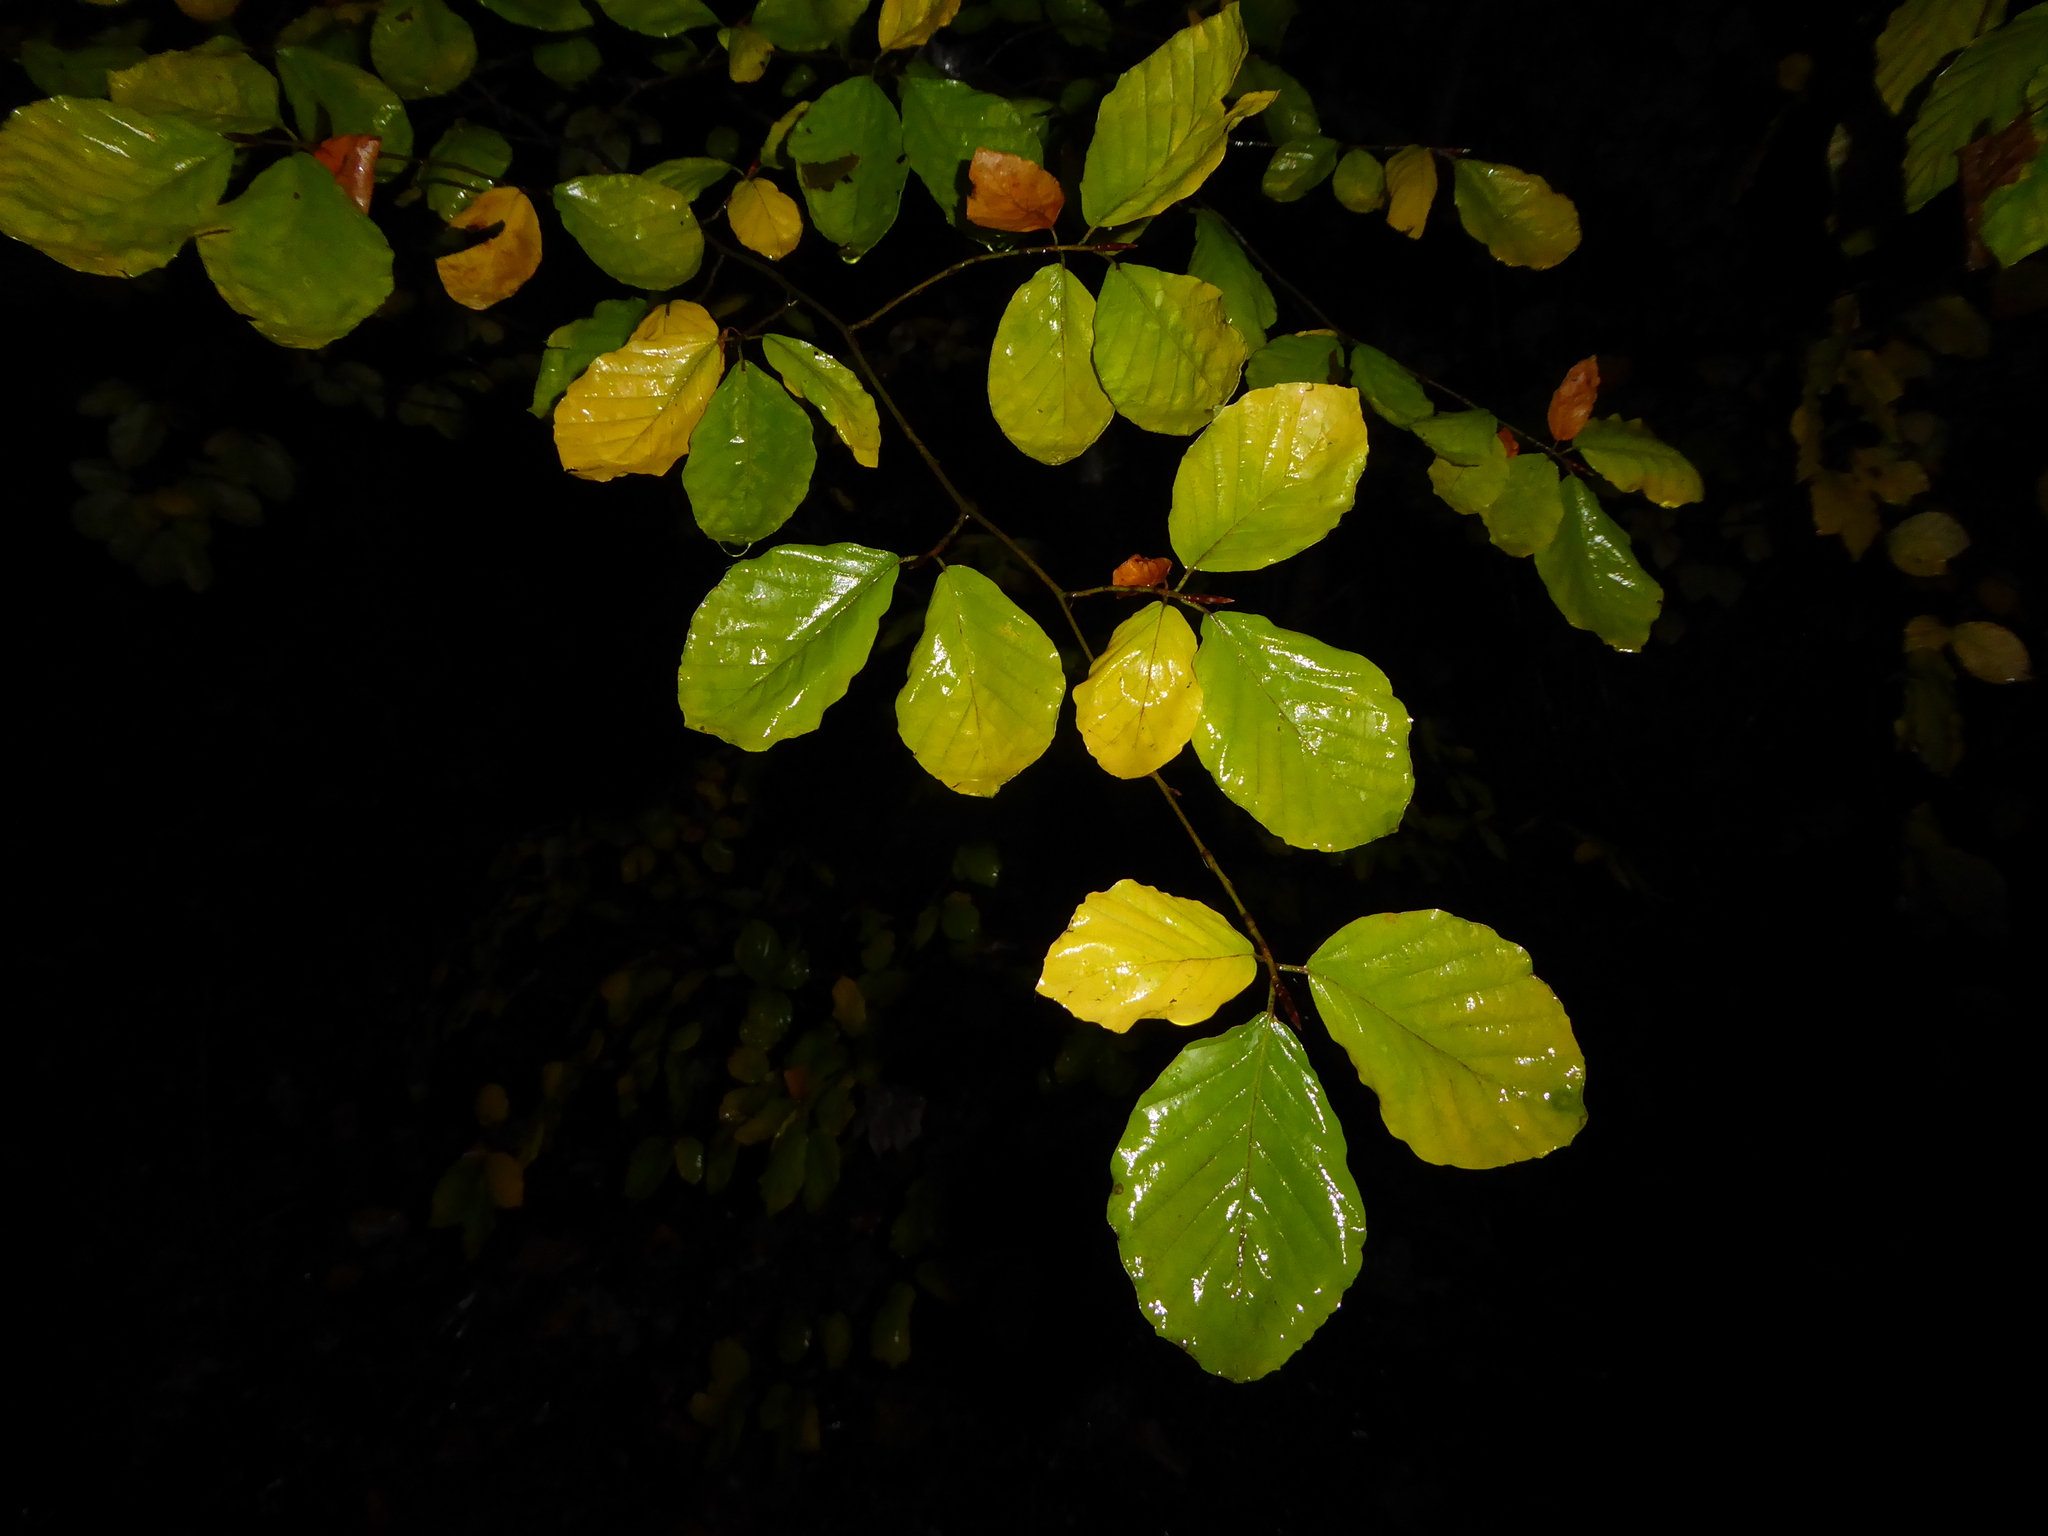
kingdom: Plantae
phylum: Tracheophyta
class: Magnoliopsida
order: Fagales
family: Fagaceae
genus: Fagus
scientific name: Fagus sylvatica
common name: Beech
